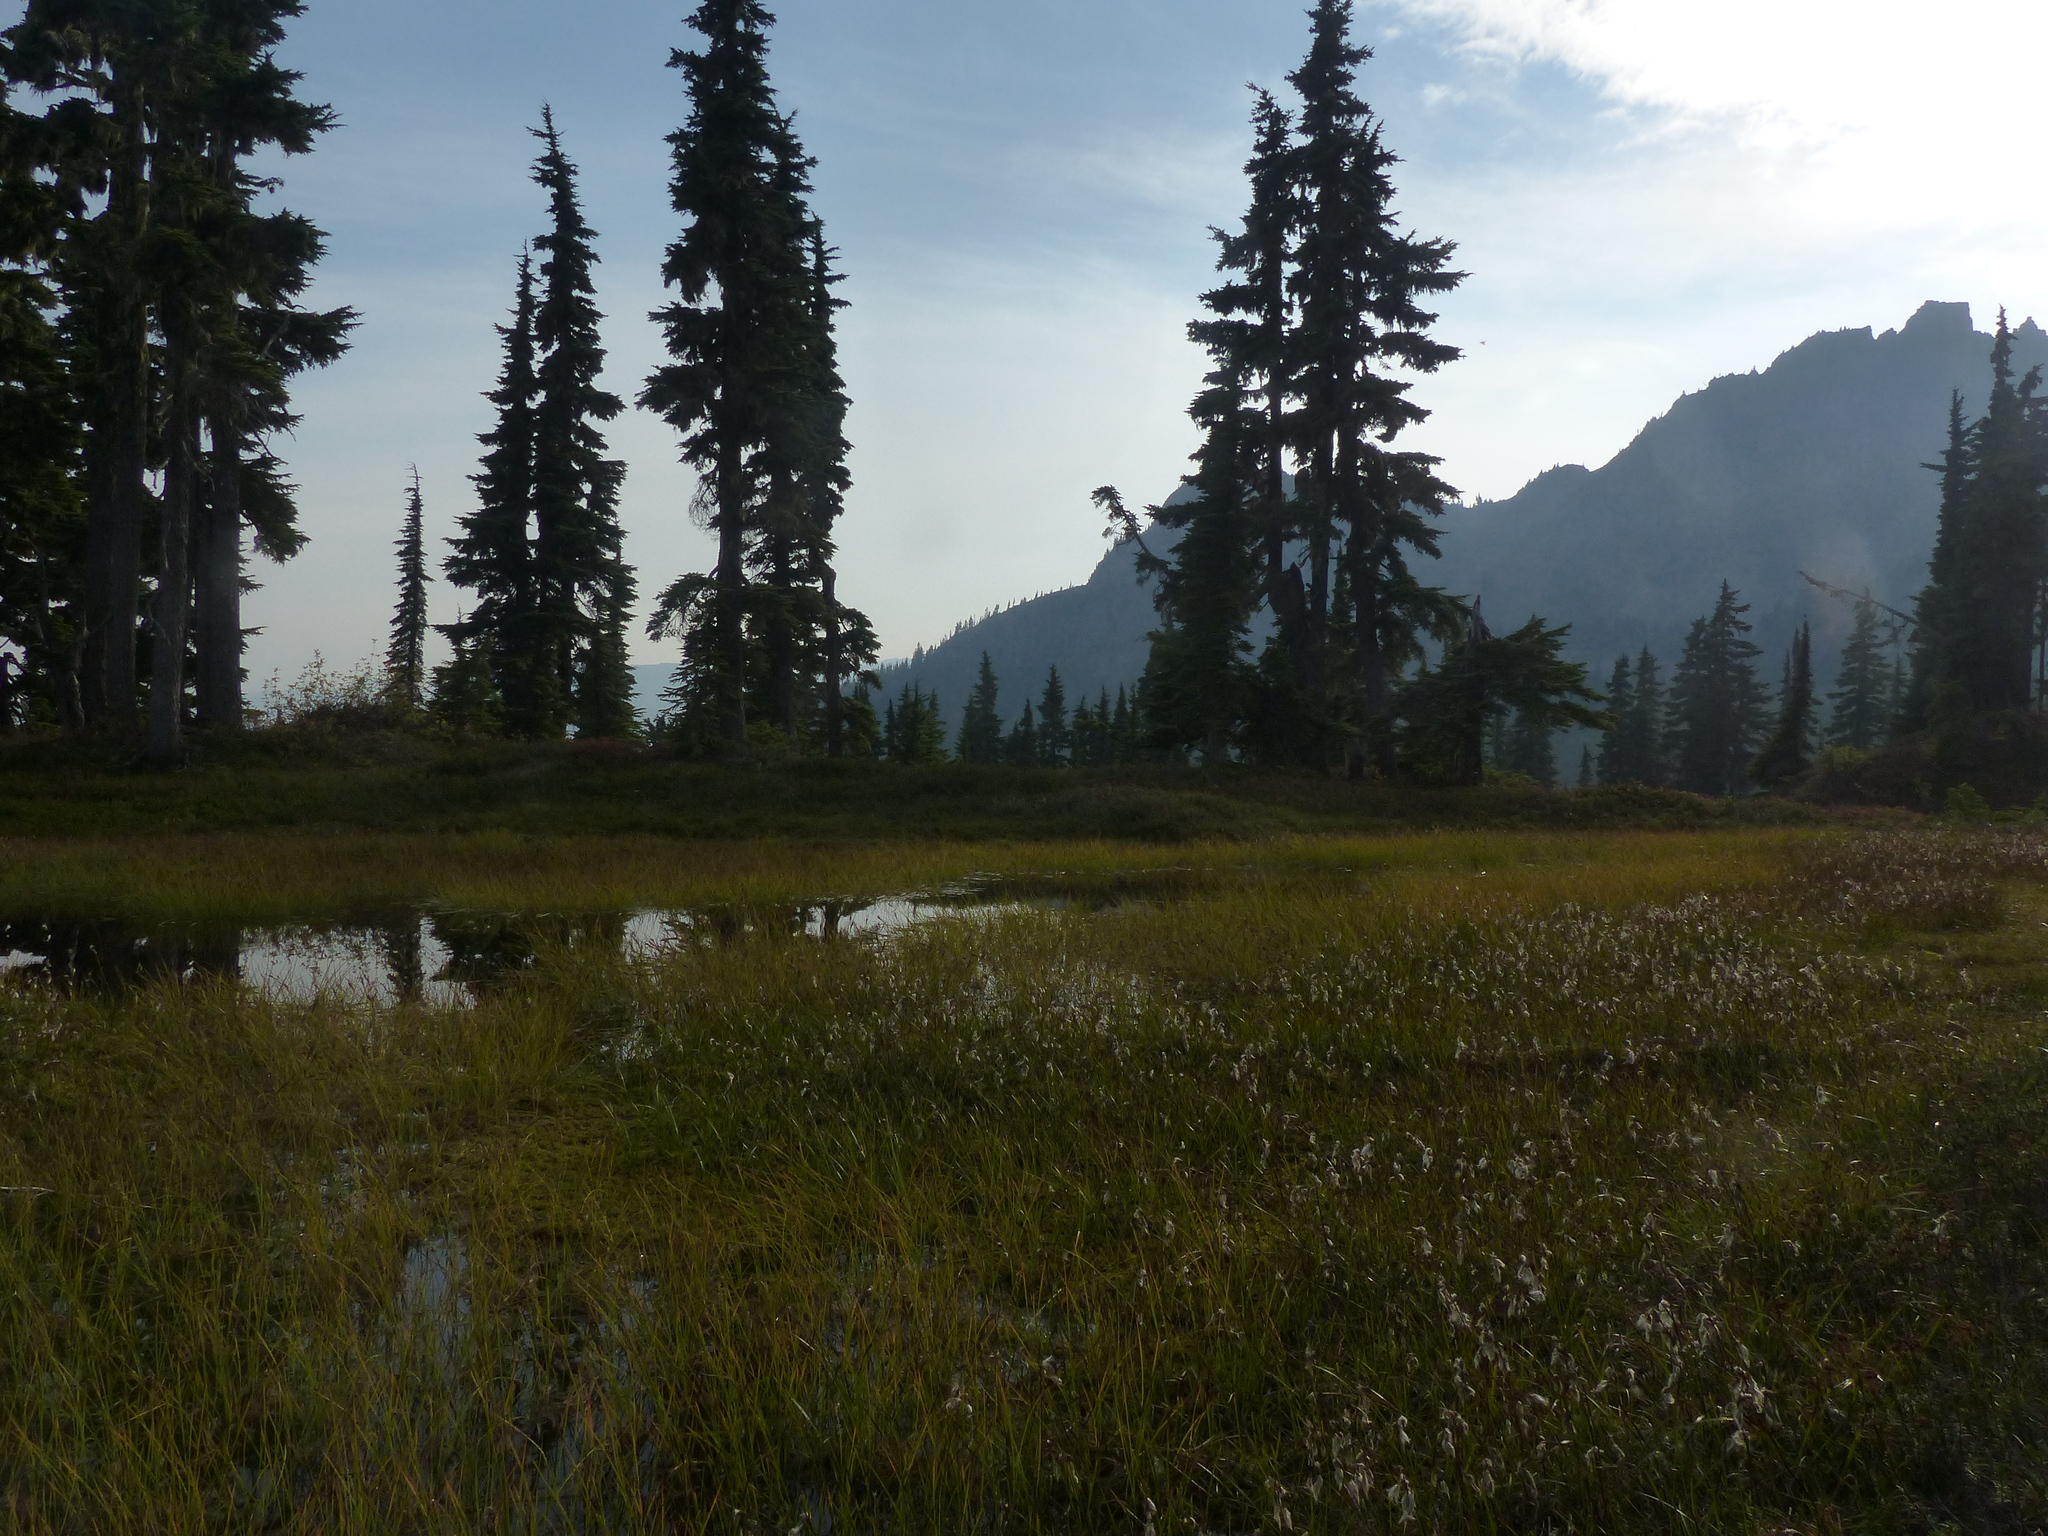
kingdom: Plantae
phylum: Tracheophyta
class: Liliopsida
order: Poales
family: Cyperaceae
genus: Eriophorum
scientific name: Eriophorum angustifolium
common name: Common cottongrass
